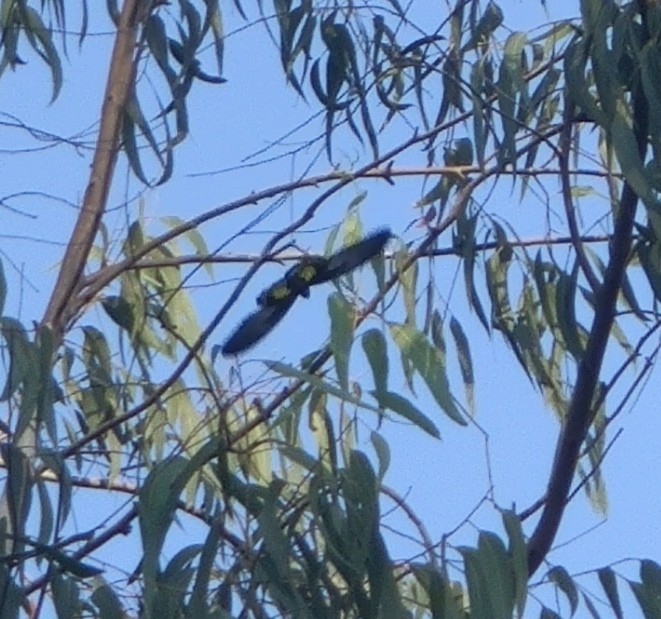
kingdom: Animalia
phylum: Arthropoda
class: Insecta
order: Lepidoptera
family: Papilionidae
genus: Troides
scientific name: Troides minos
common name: Malabar birdwing
